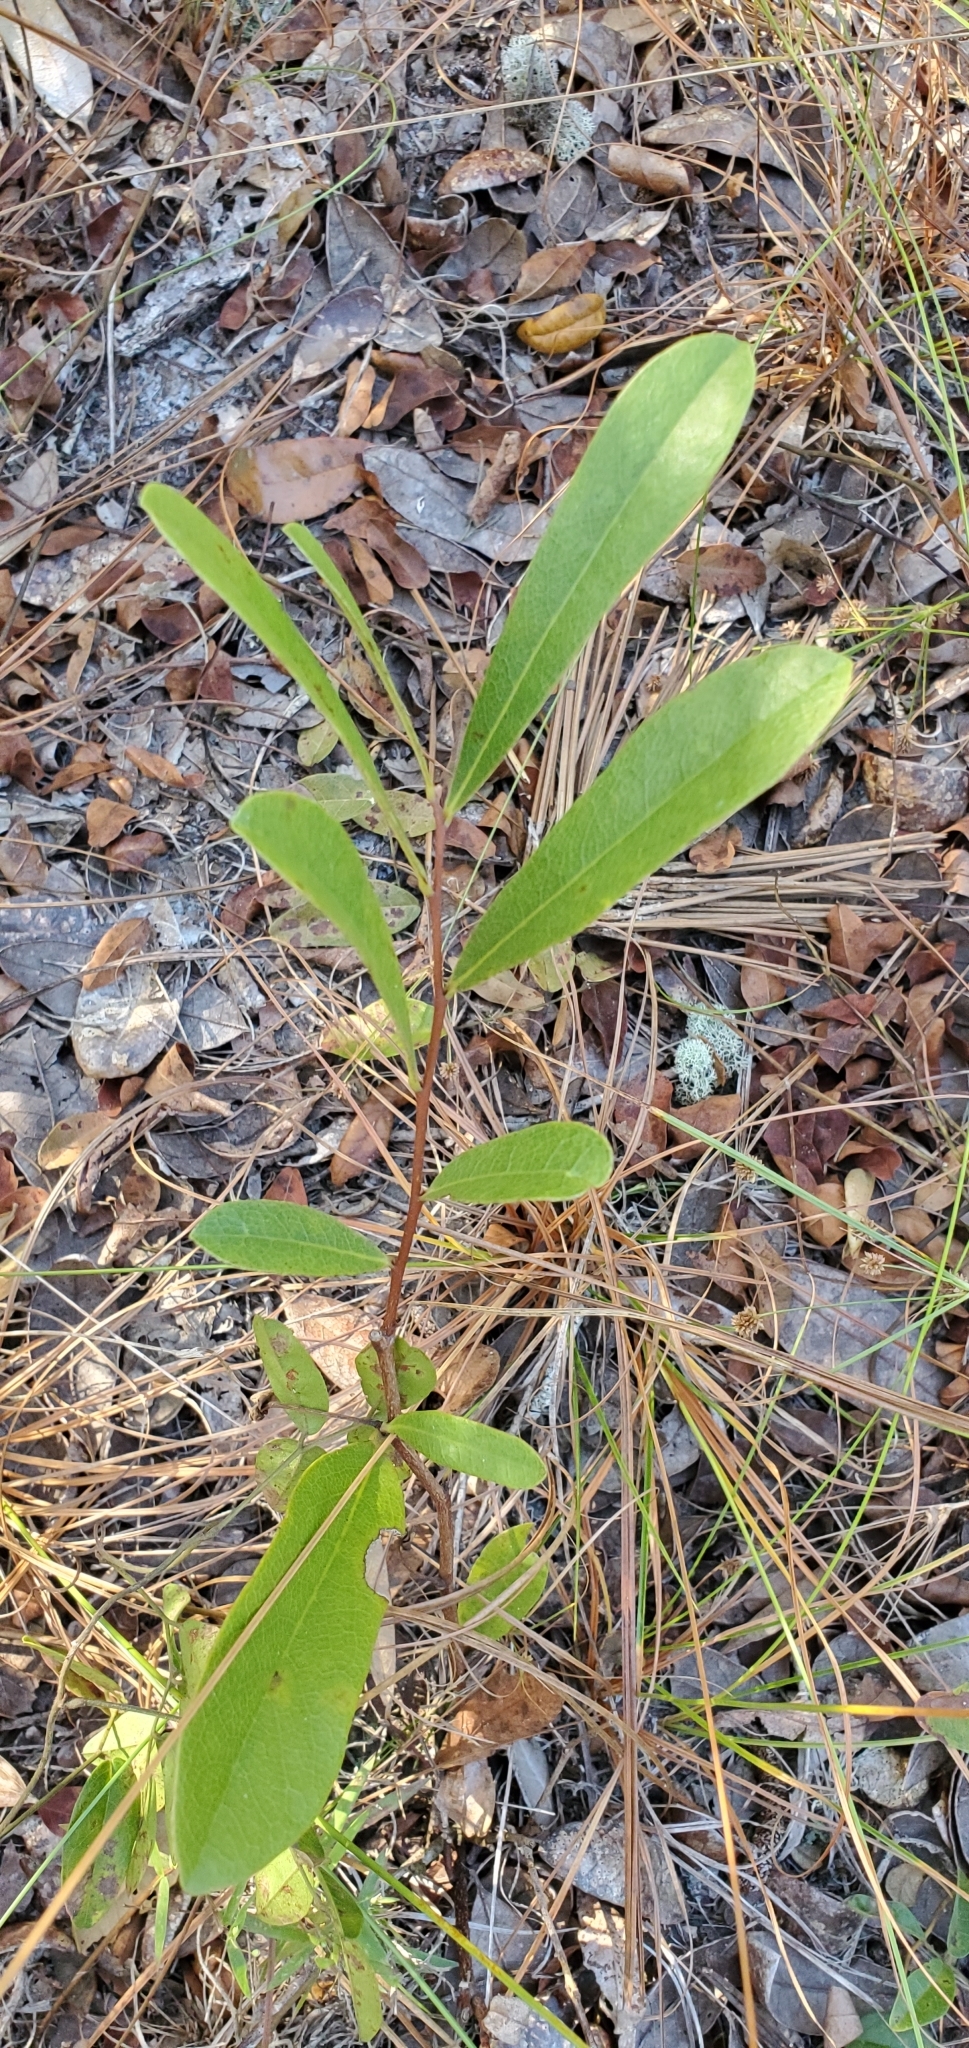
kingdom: Plantae
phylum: Tracheophyta
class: Magnoliopsida
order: Magnoliales
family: Annonaceae
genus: Asimina
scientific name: Asimina pygmaea
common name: Dwarf pawpaw
